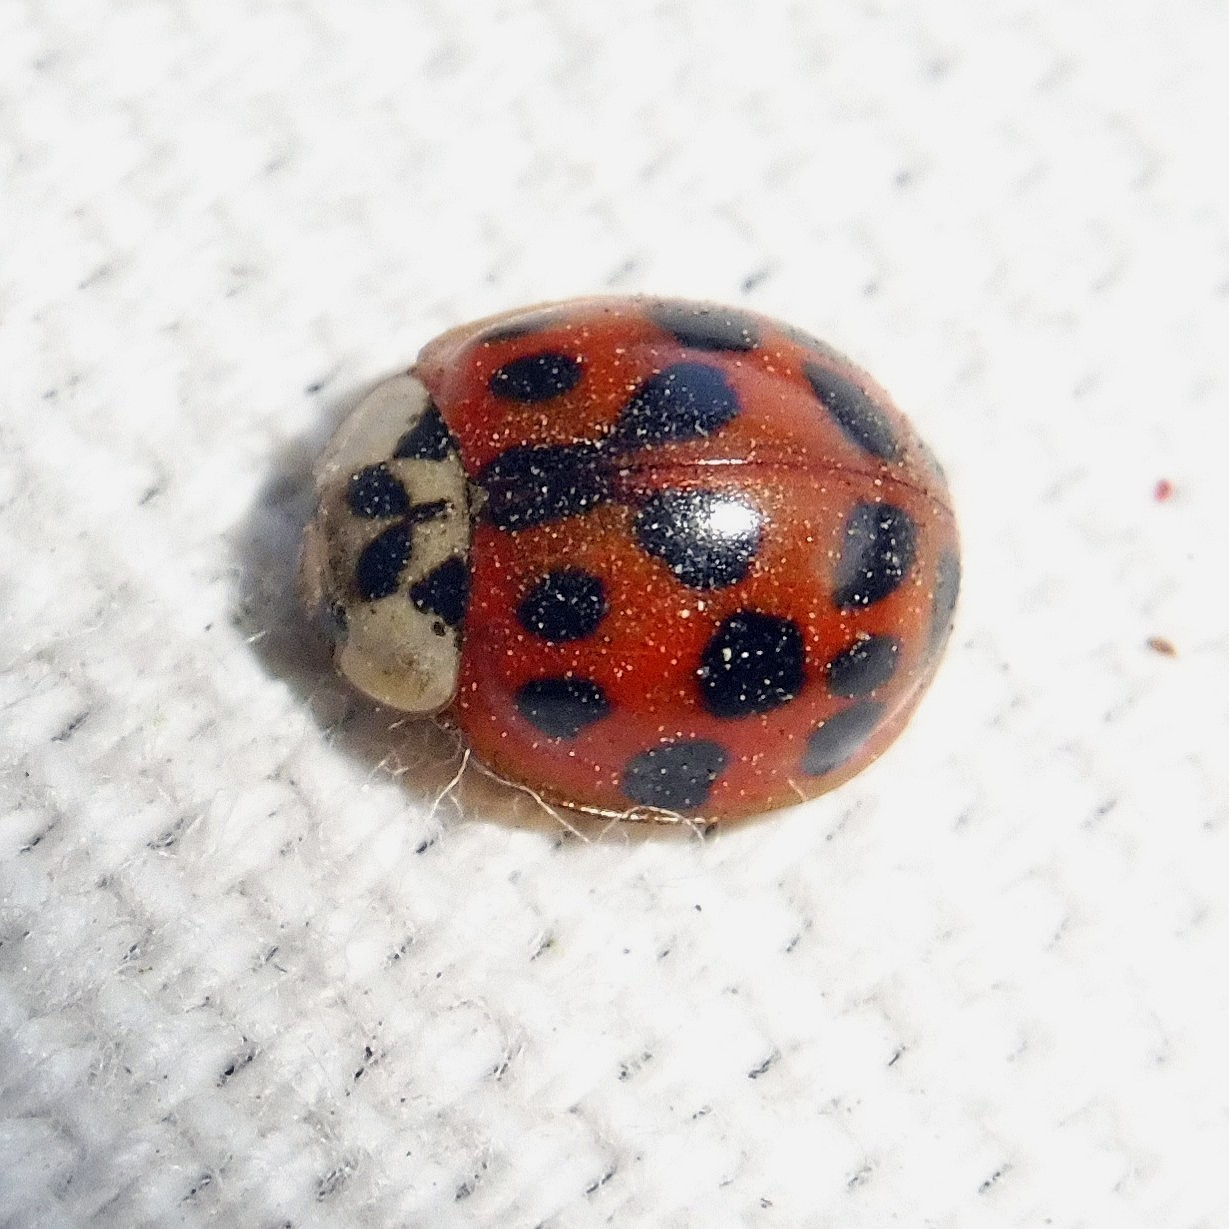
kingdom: Animalia
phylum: Arthropoda
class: Insecta
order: Coleoptera
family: Coccinellidae
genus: Harmonia
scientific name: Harmonia axyridis
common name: Harlequin ladybird
